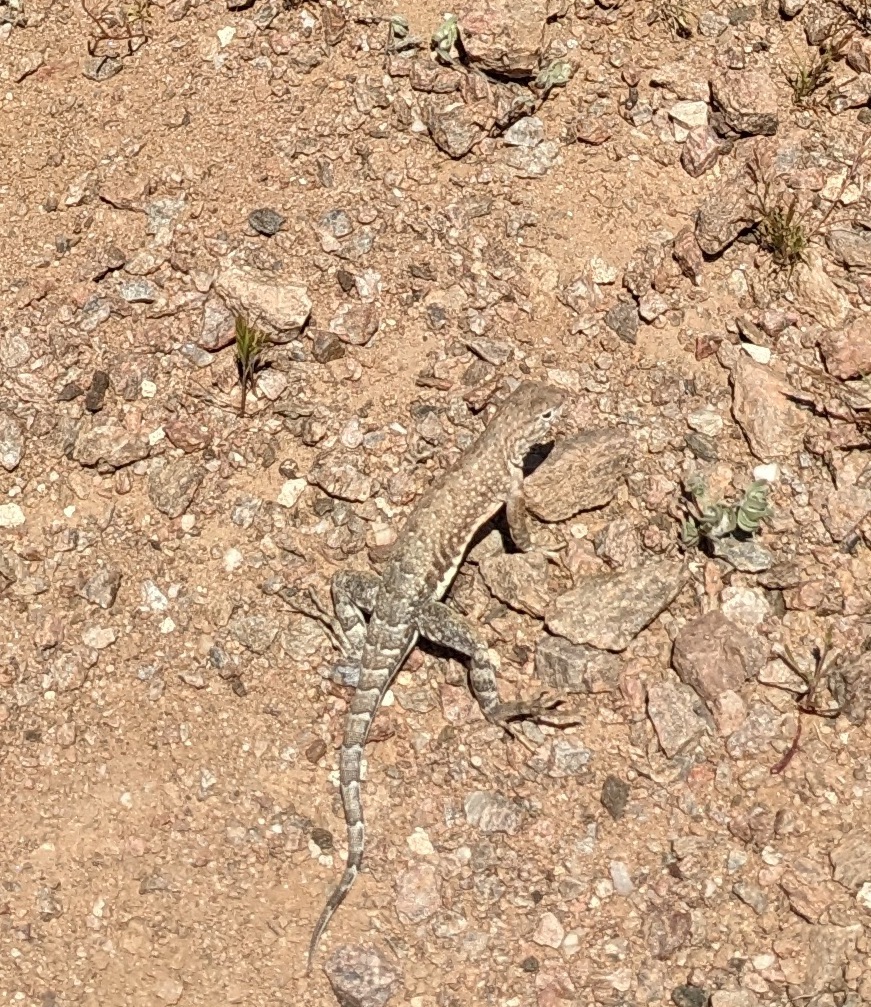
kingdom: Animalia
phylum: Chordata
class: Squamata
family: Phrynosomatidae
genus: Cophosaurus
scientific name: Cophosaurus texanus
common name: Greater earless lizard
